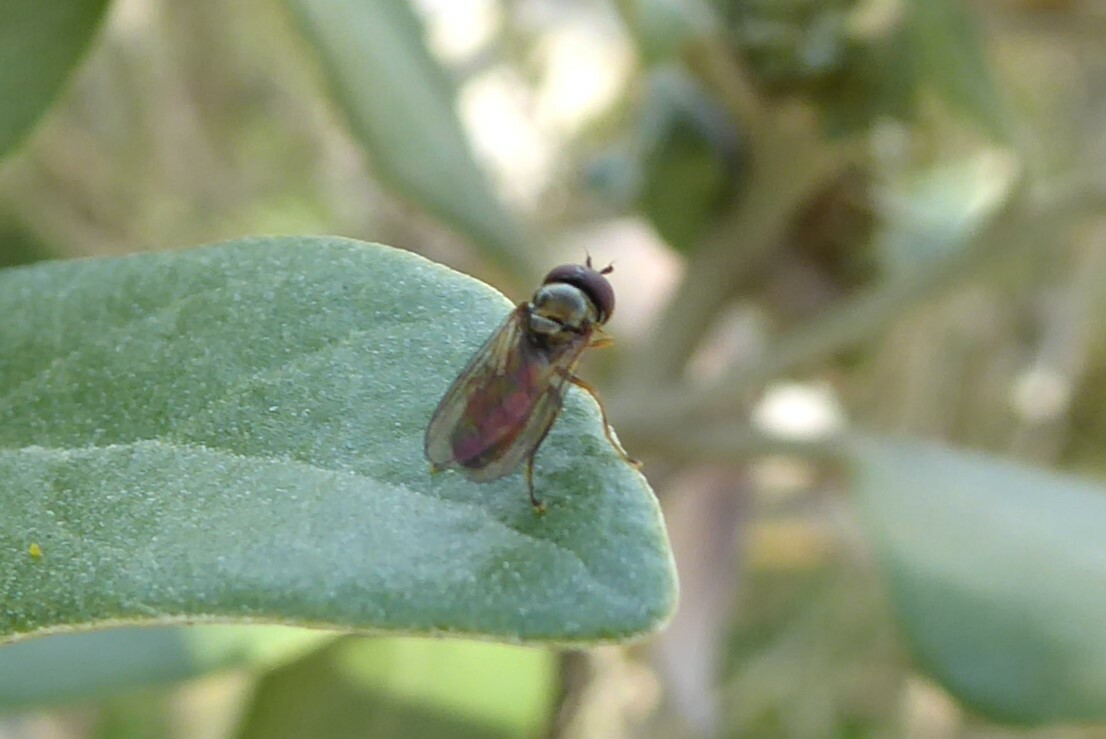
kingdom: Animalia
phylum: Arthropoda
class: Insecta
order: Diptera
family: Syrphidae
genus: Melanostoma
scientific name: Melanostoma fasciatum
